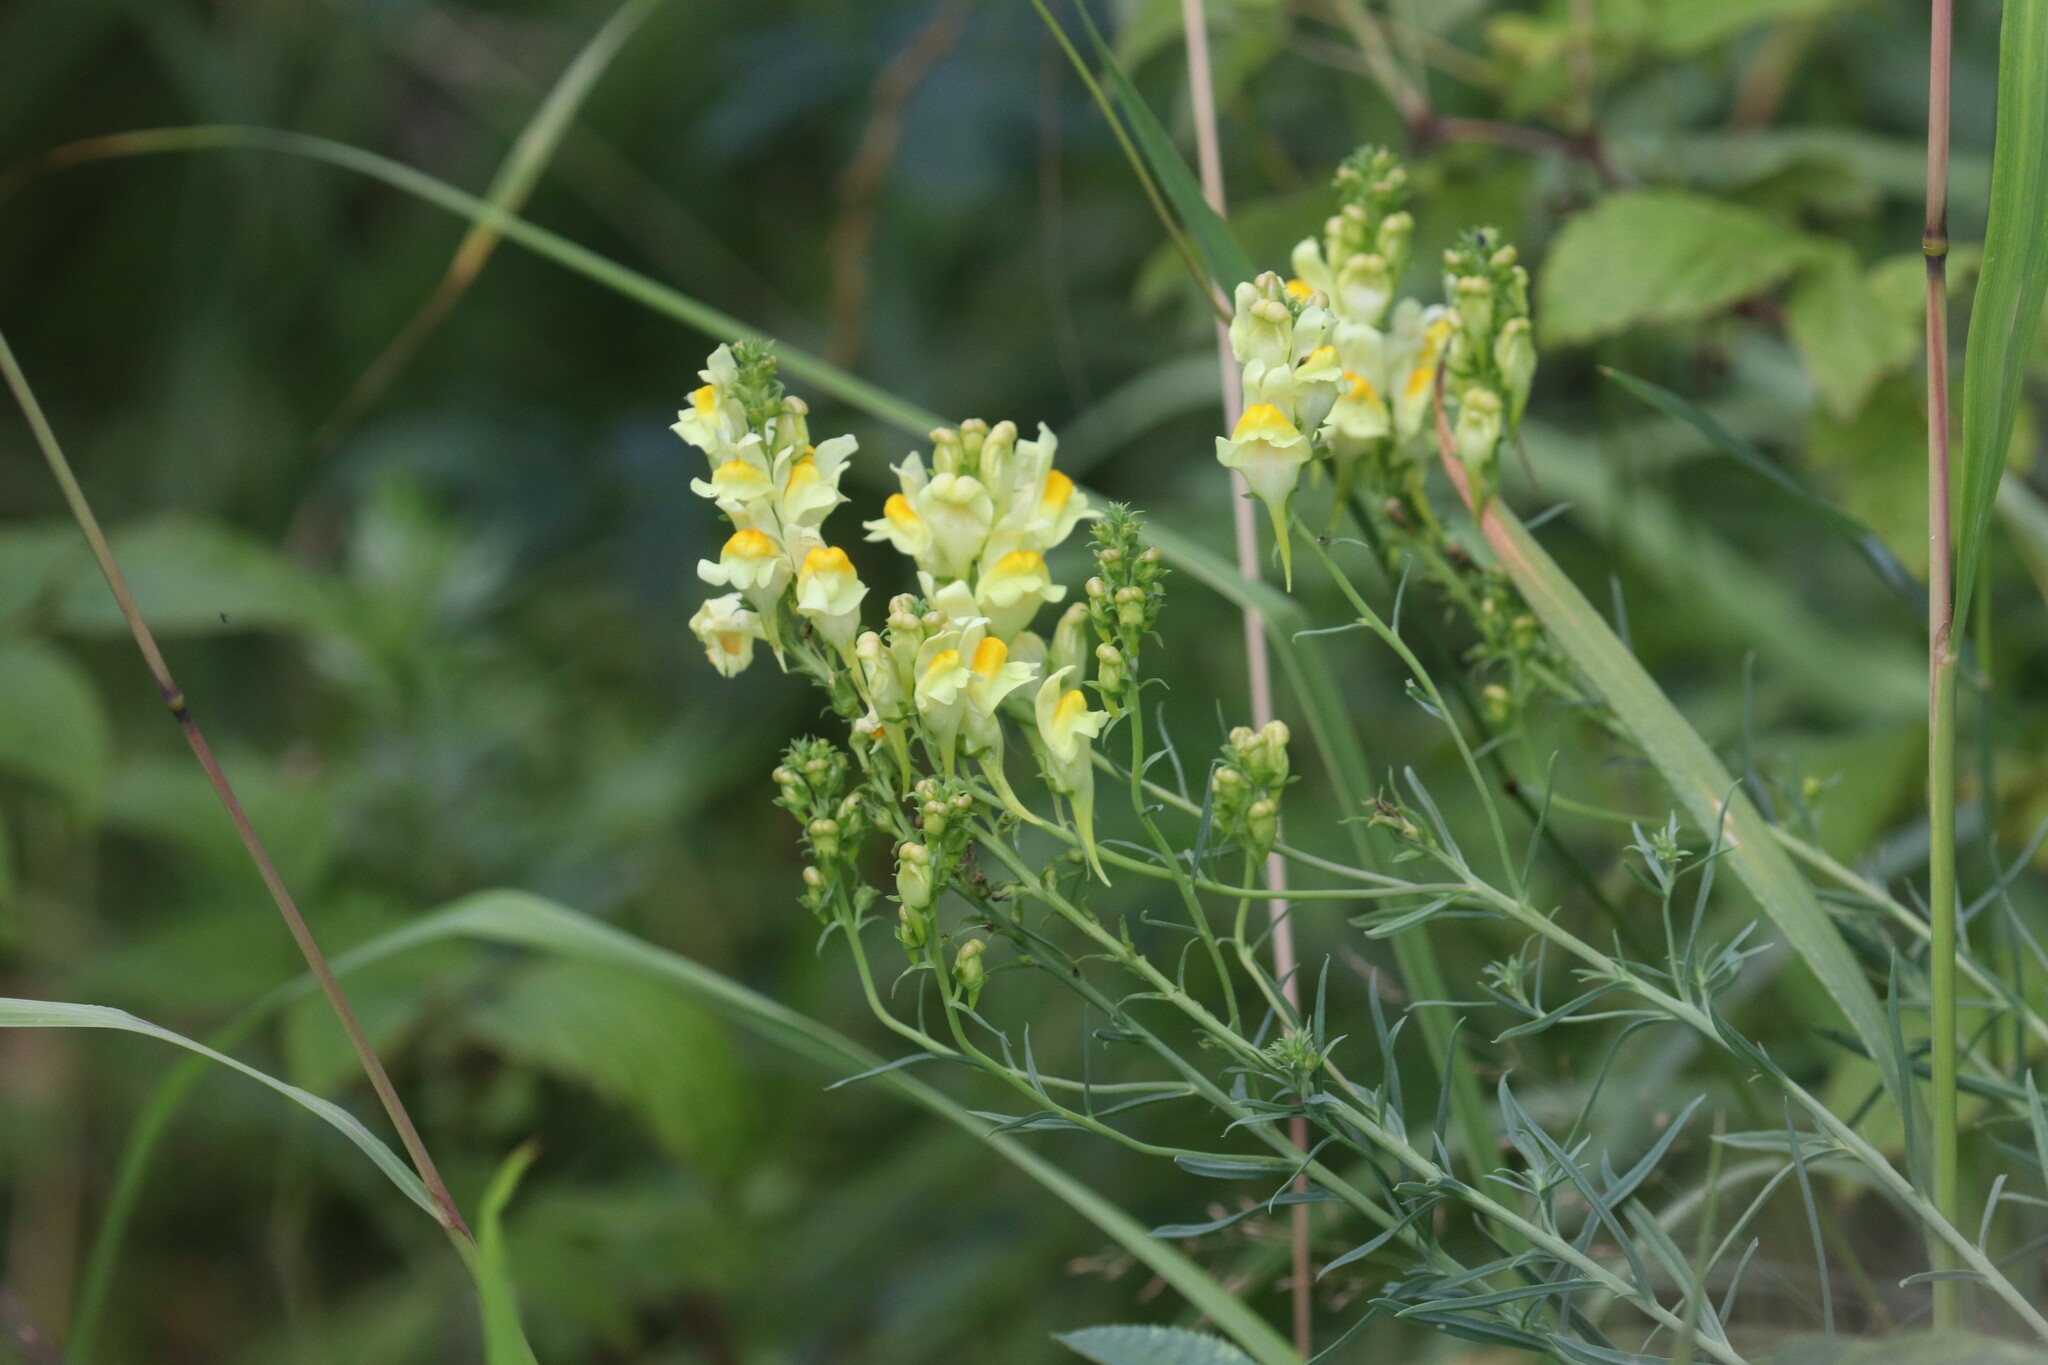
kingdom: Plantae
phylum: Tracheophyta
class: Magnoliopsida
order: Lamiales
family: Plantaginaceae
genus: Linaria
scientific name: Linaria vulgaris
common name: Butter and eggs
